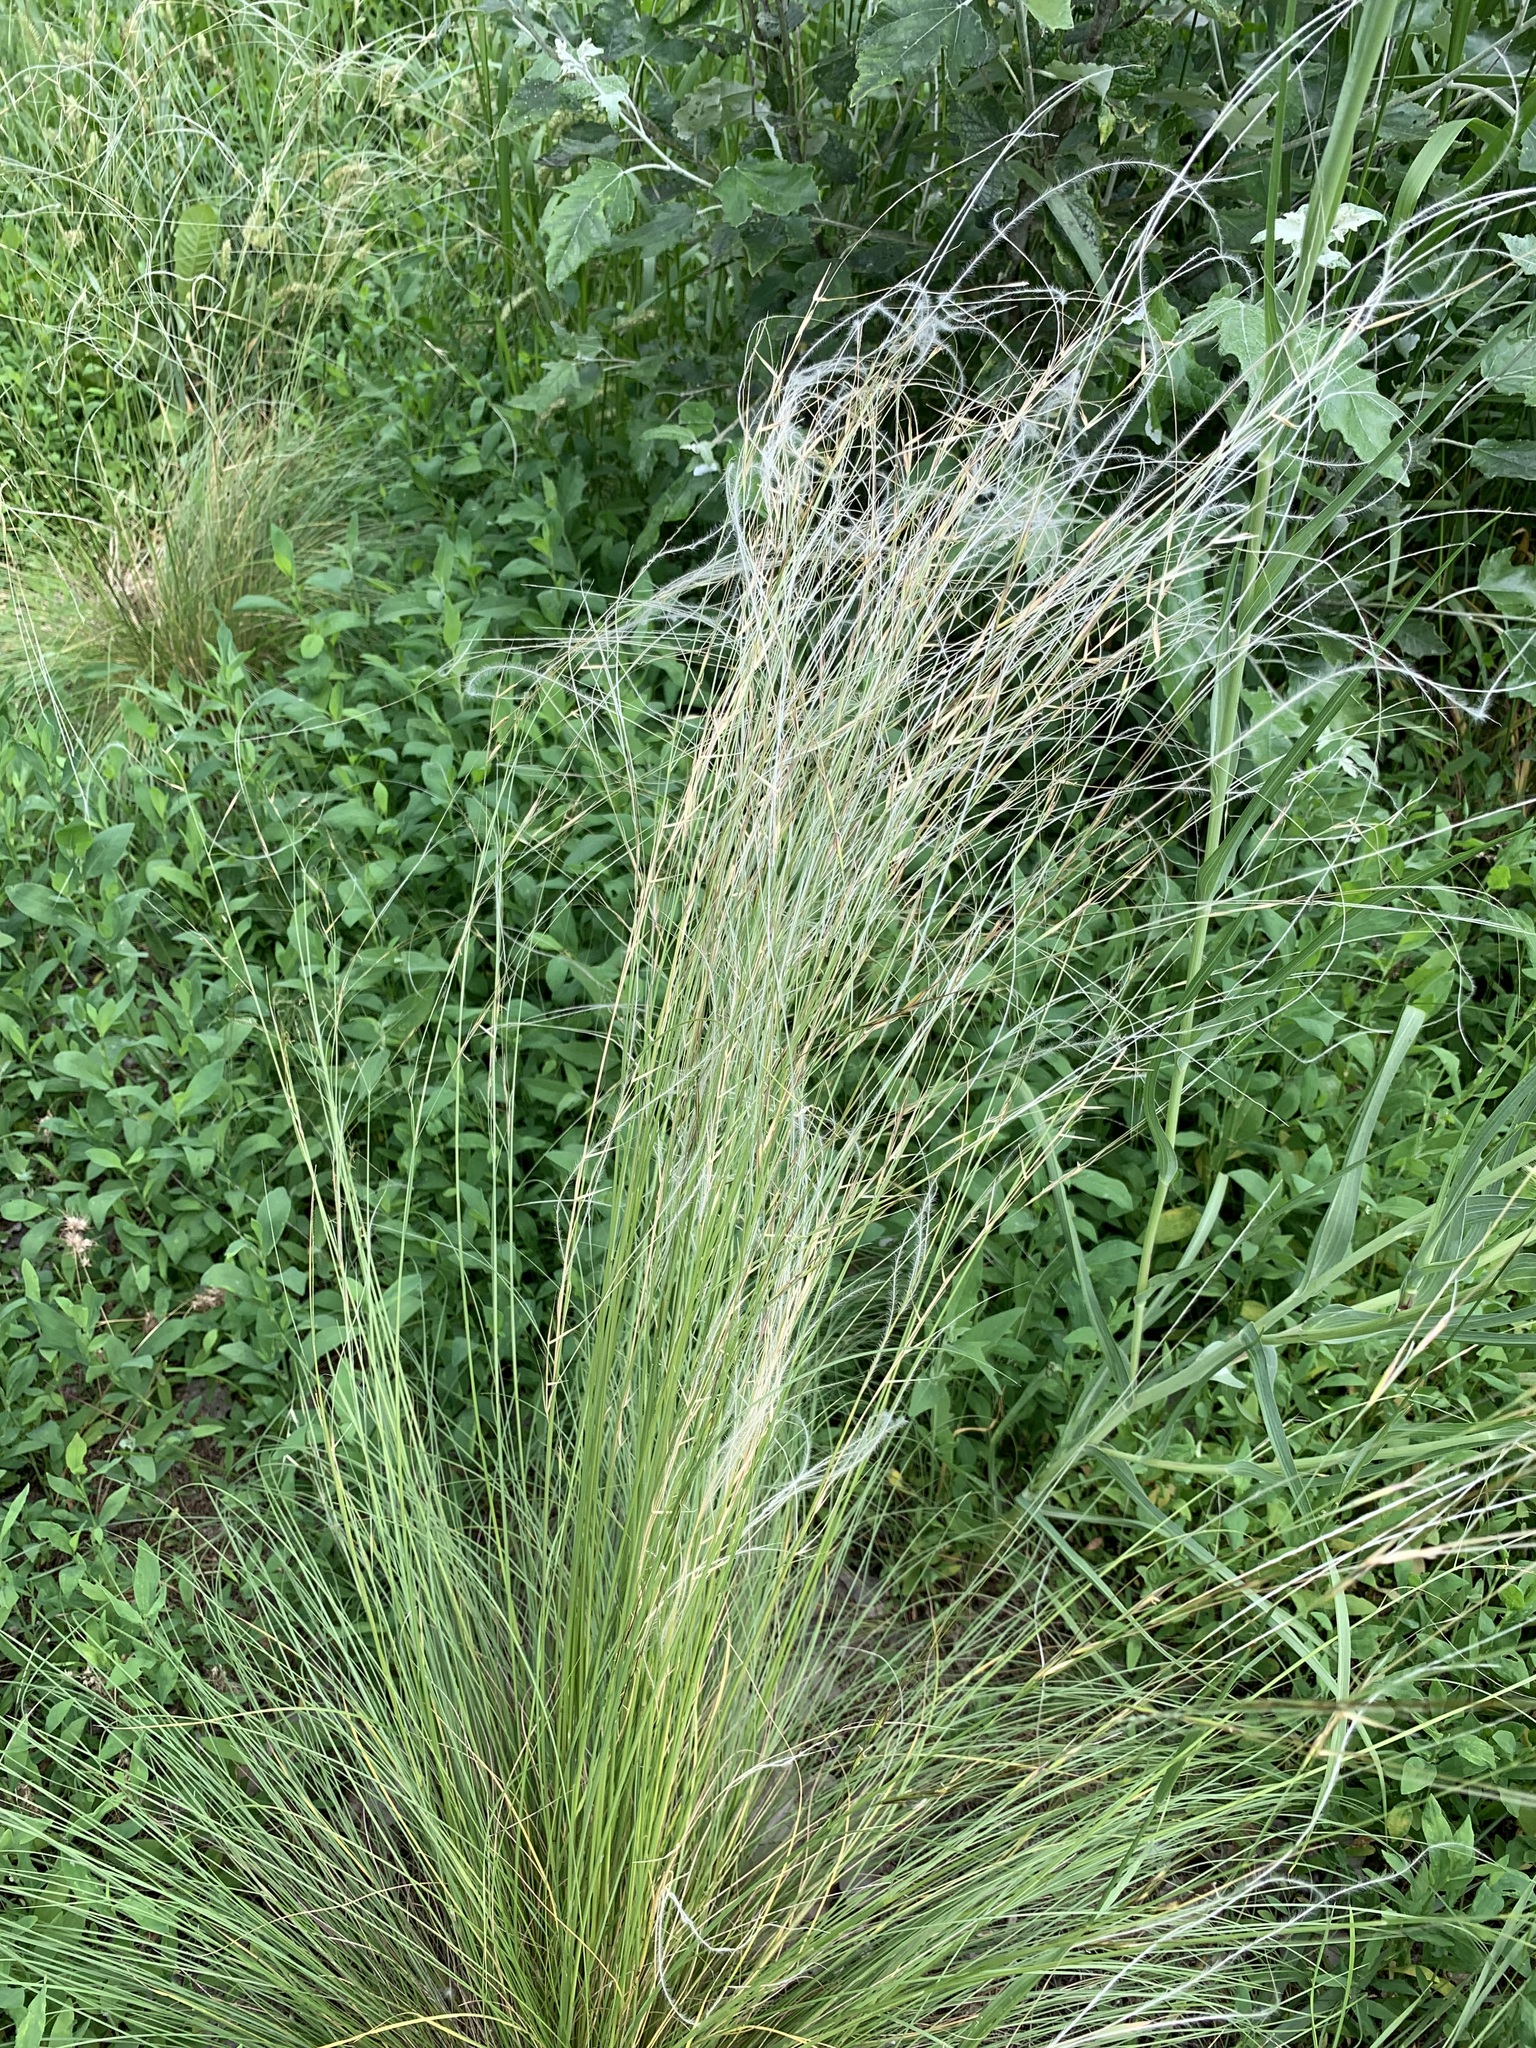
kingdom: Plantae
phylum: Tracheophyta
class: Liliopsida
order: Poales
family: Poaceae
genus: Stipa
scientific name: Stipa lessingiana
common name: Needle grass
